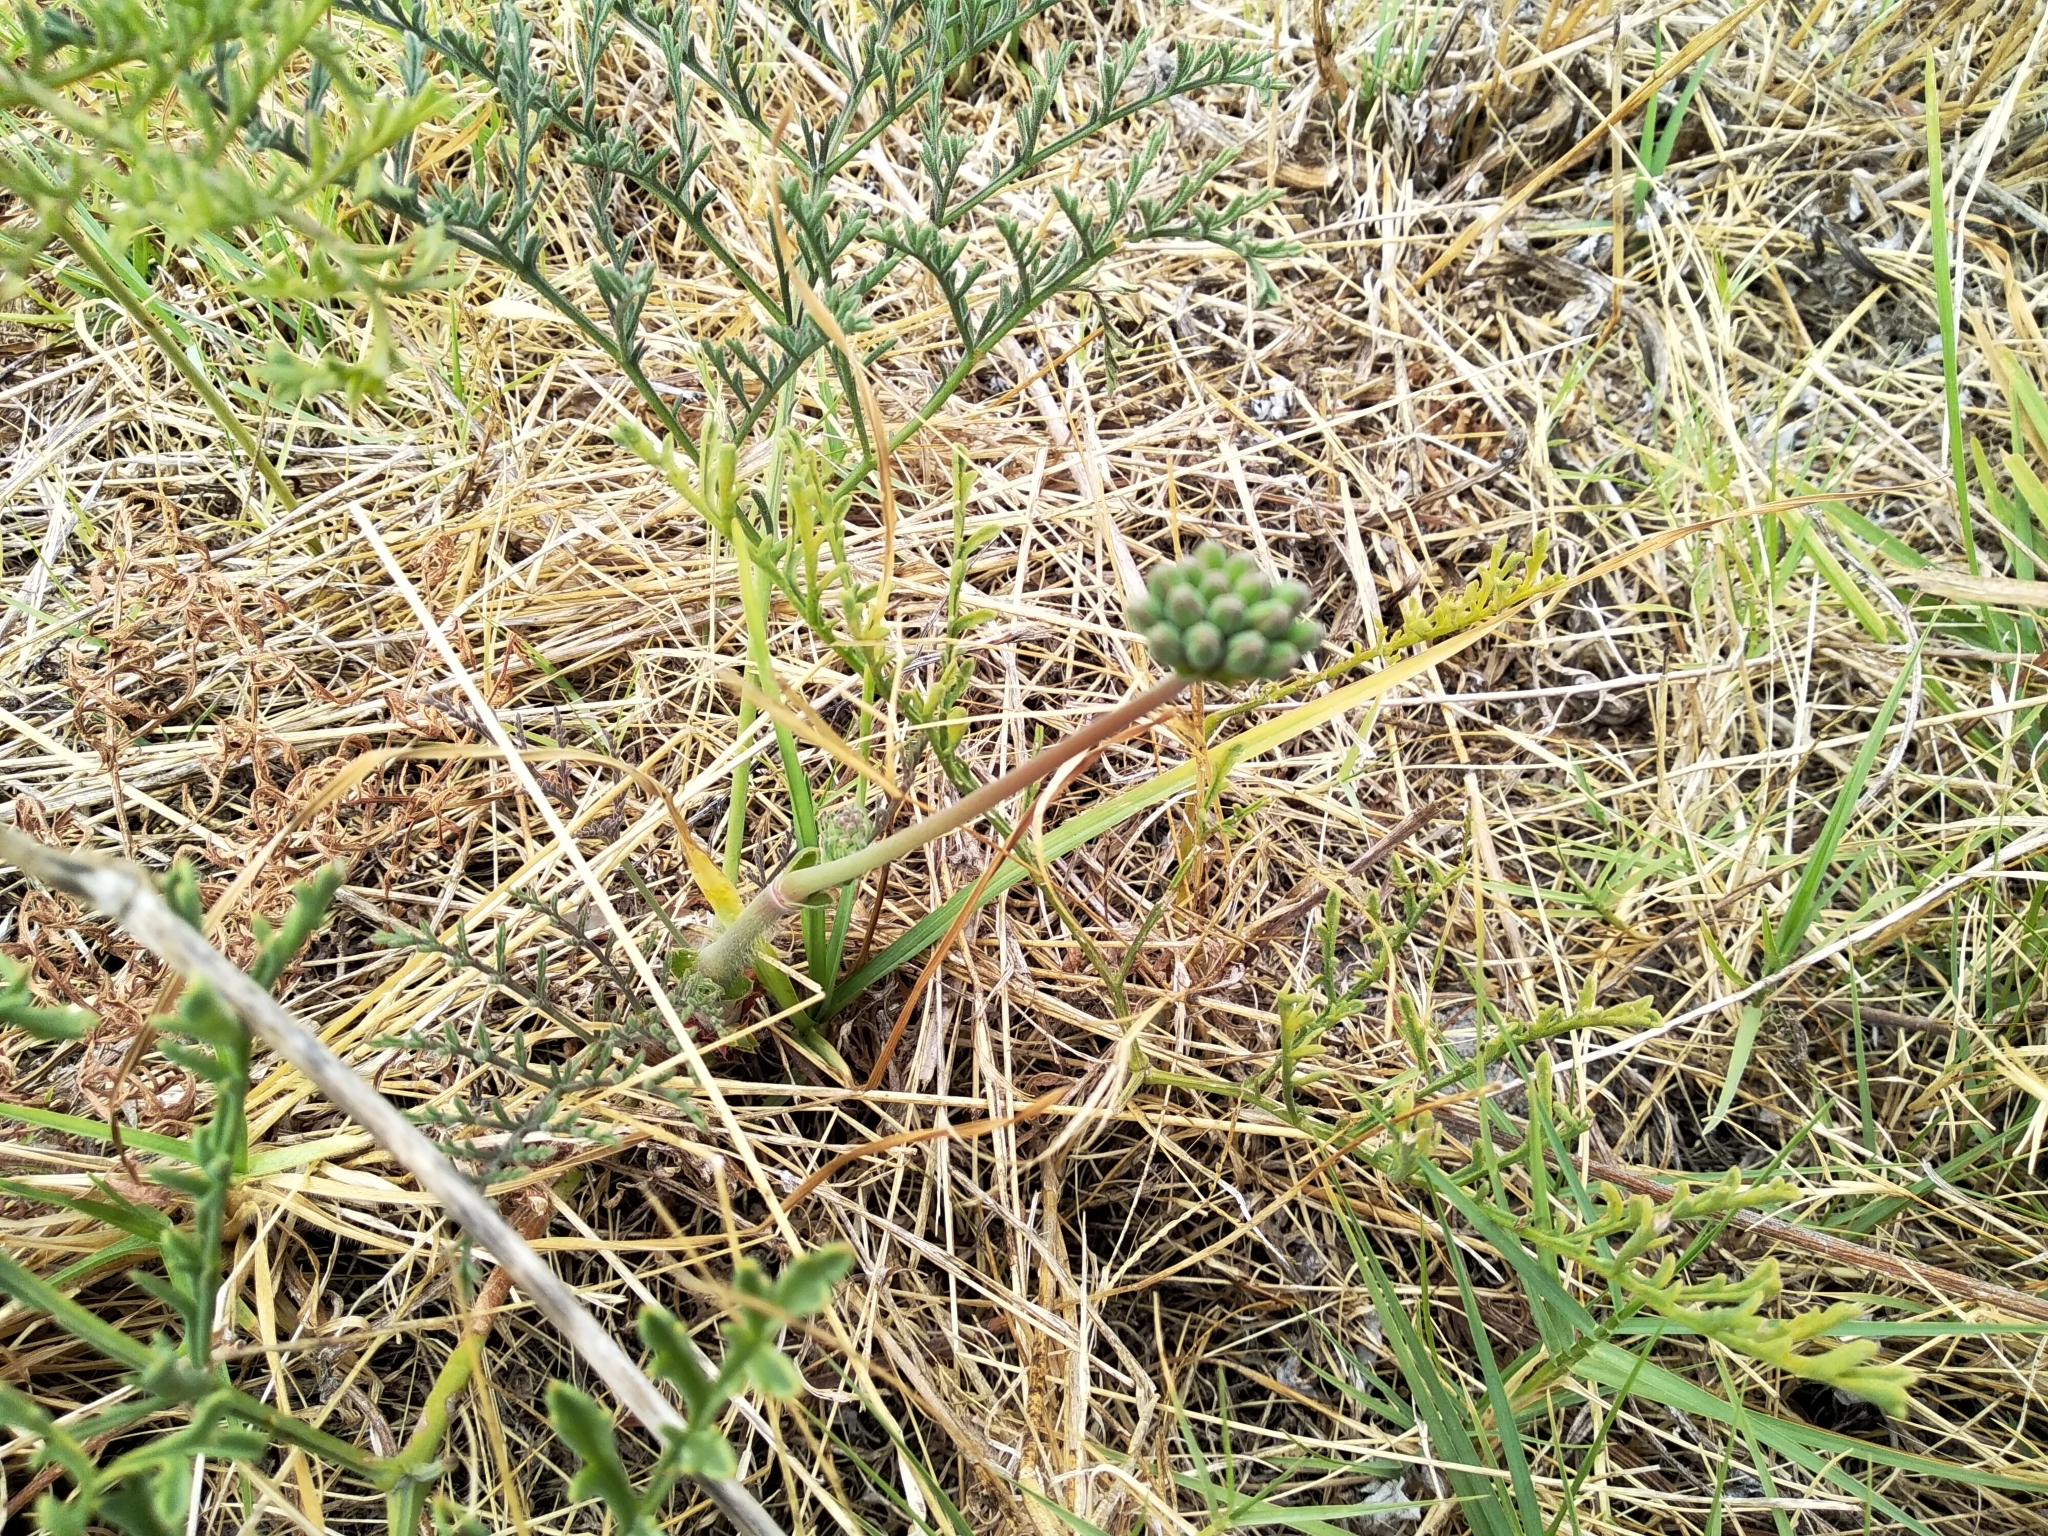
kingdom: Plantae
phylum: Tracheophyta
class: Magnoliopsida
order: Geraniales
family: Geraniaceae
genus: Pelargonium
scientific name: Pelargonium multiradiatum
